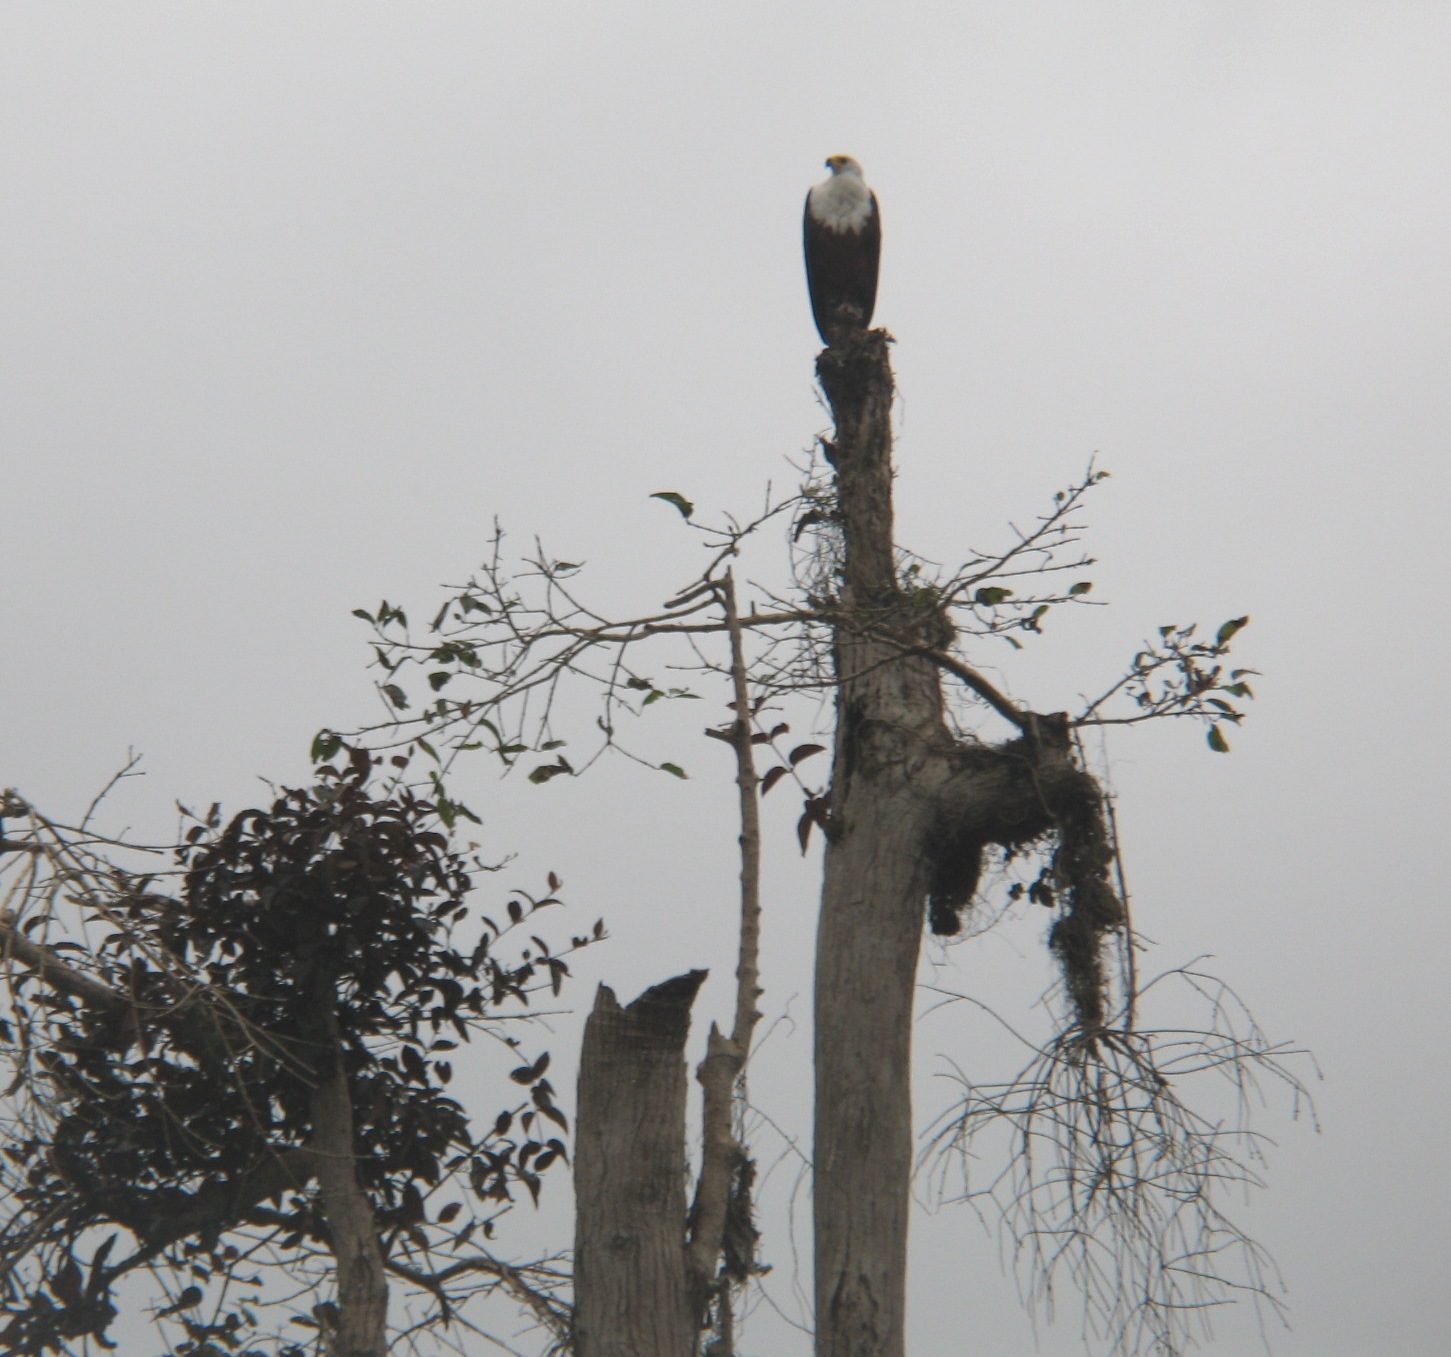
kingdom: Animalia
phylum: Chordata
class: Aves
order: Accipitriformes
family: Accipitridae
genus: Haliaeetus
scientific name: Haliaeetus vocifer
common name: African fish eagle
